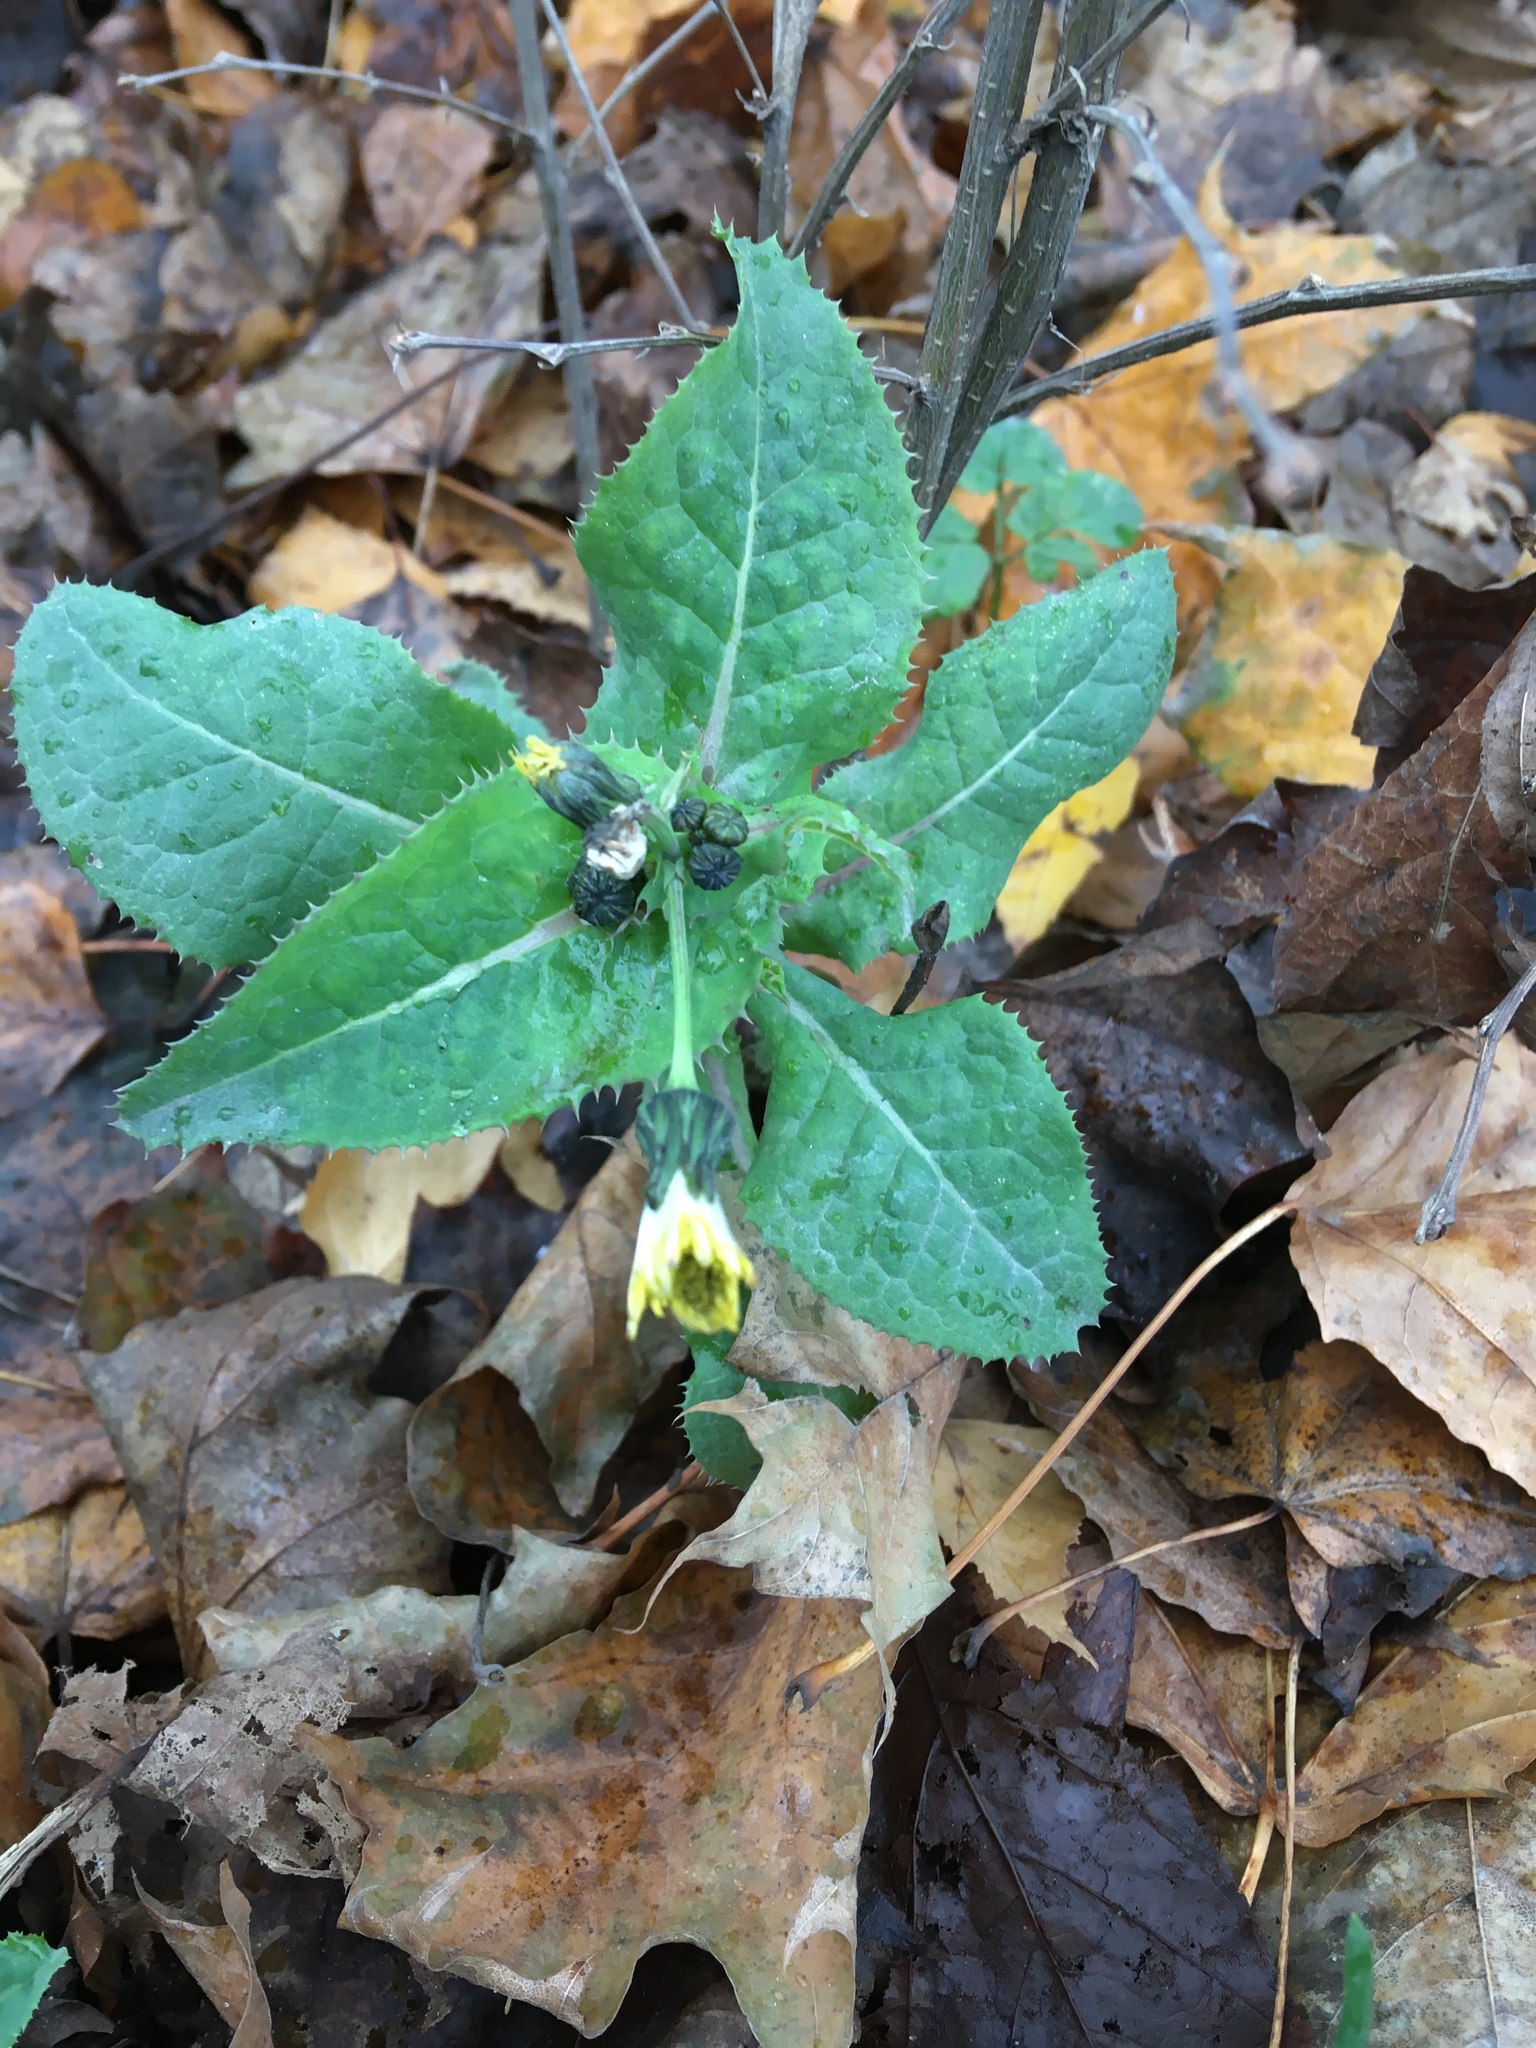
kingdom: Plantae
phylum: Tracheophyta
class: Magnoliopsida
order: Asterales
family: Asteraceae
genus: Sonchus
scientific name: Sonchus oleraceus
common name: Common sowthistle
